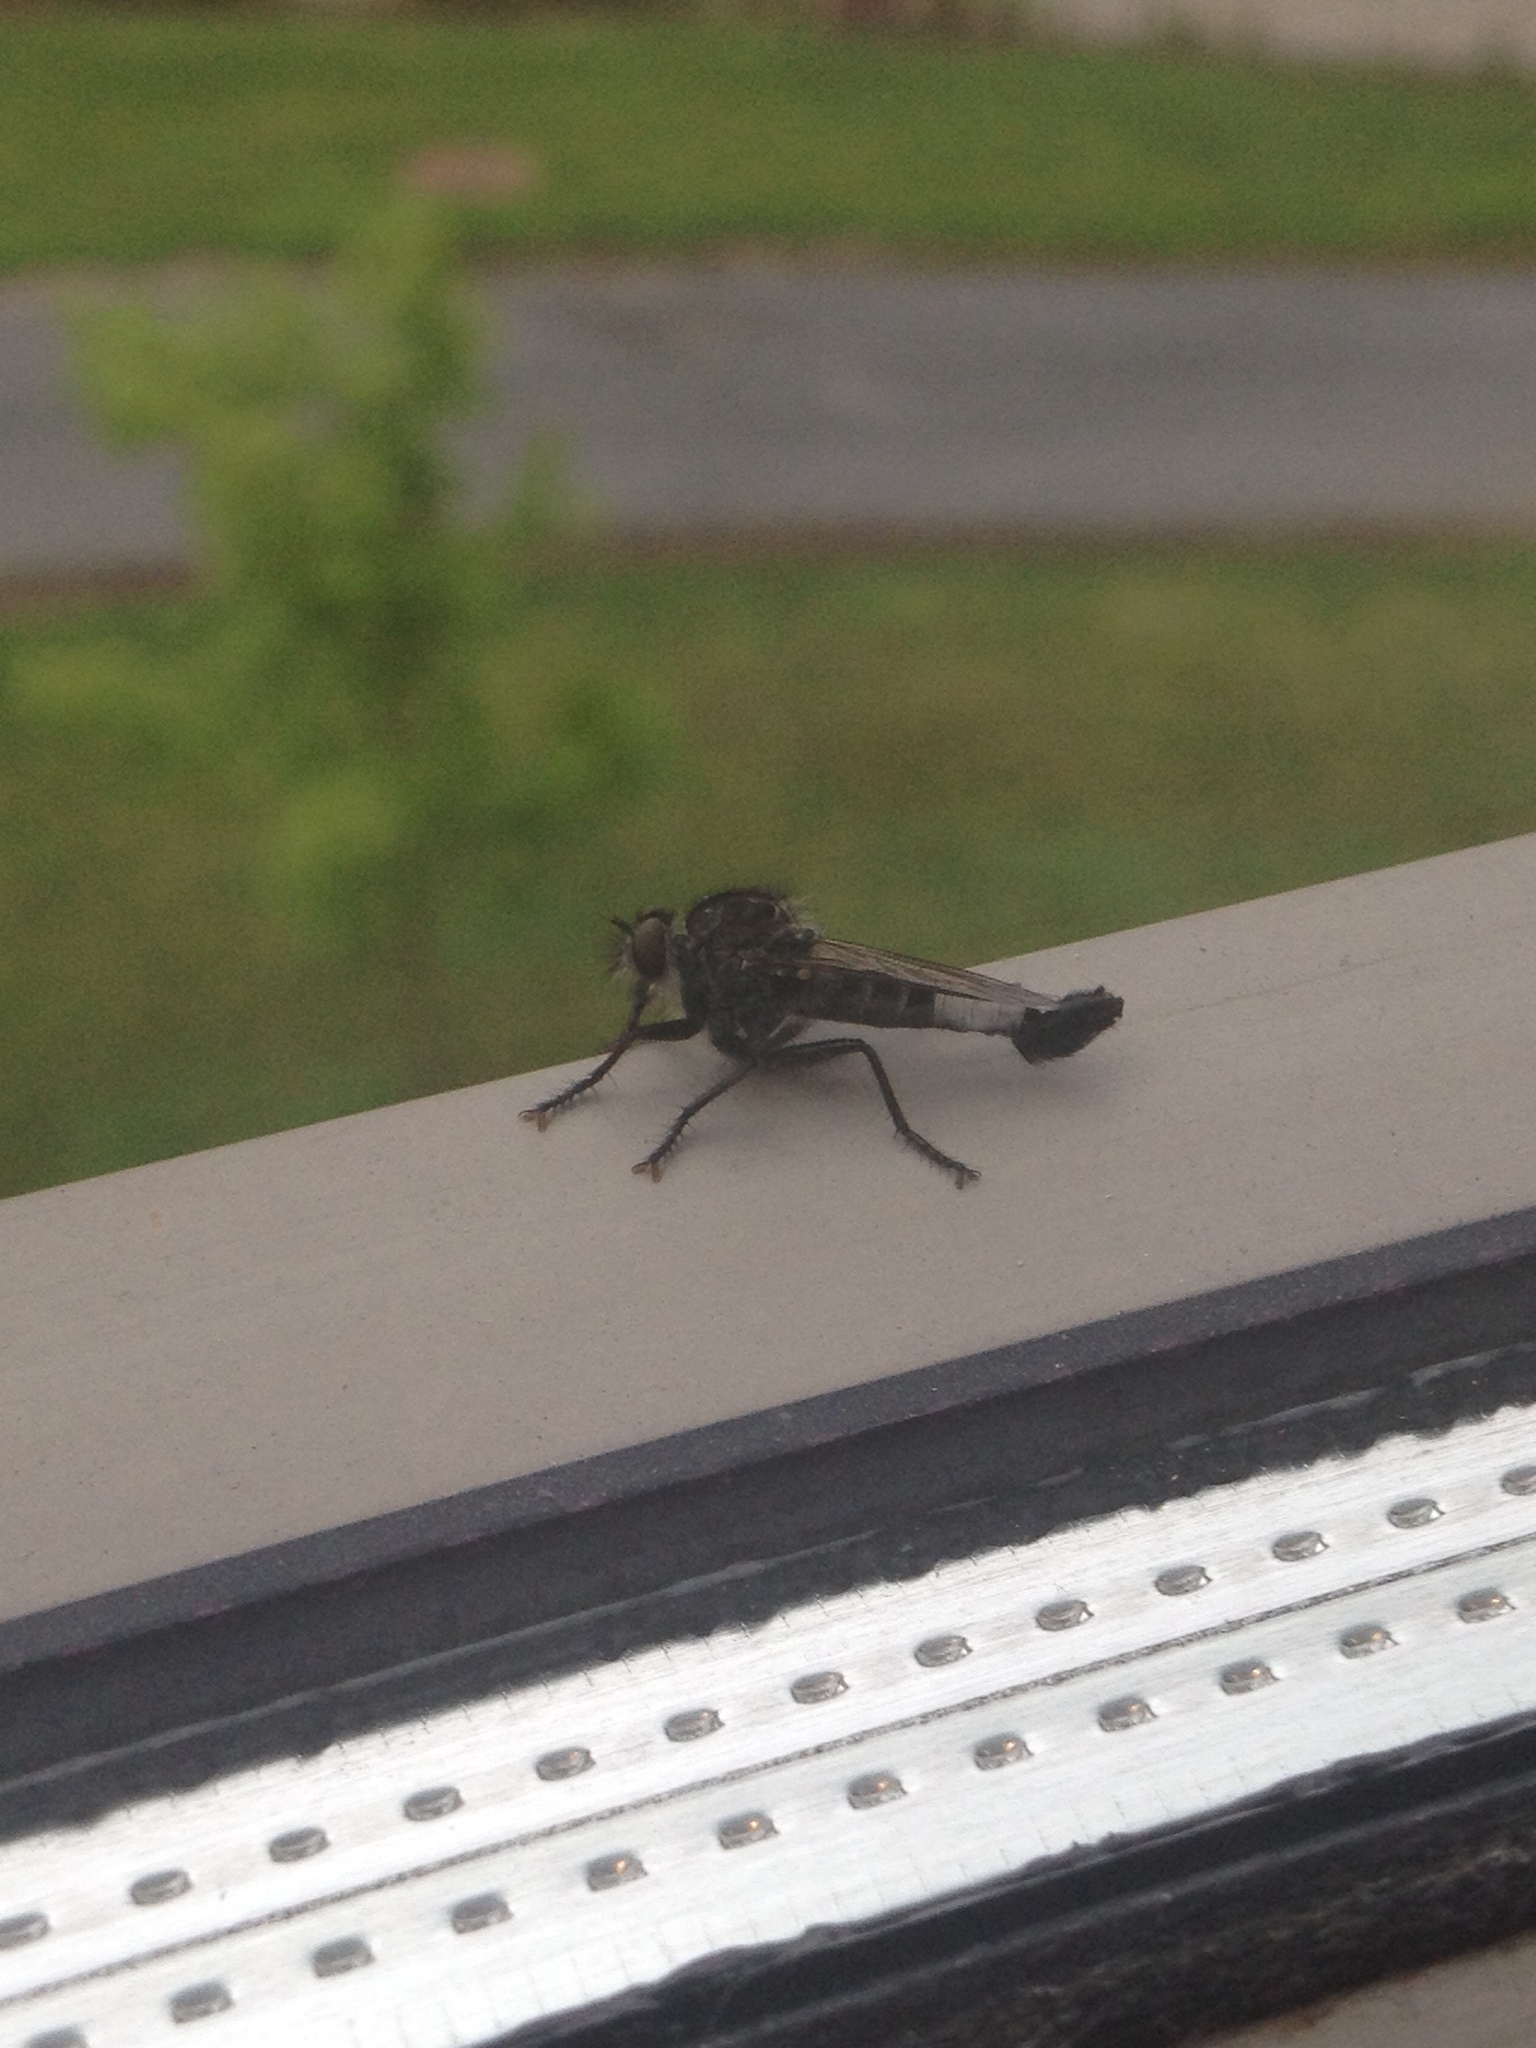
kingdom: Animalia
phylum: Arthropoda
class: Insecta
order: Diptera
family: Asilidae
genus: Efferia
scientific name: Efferia aestuans
